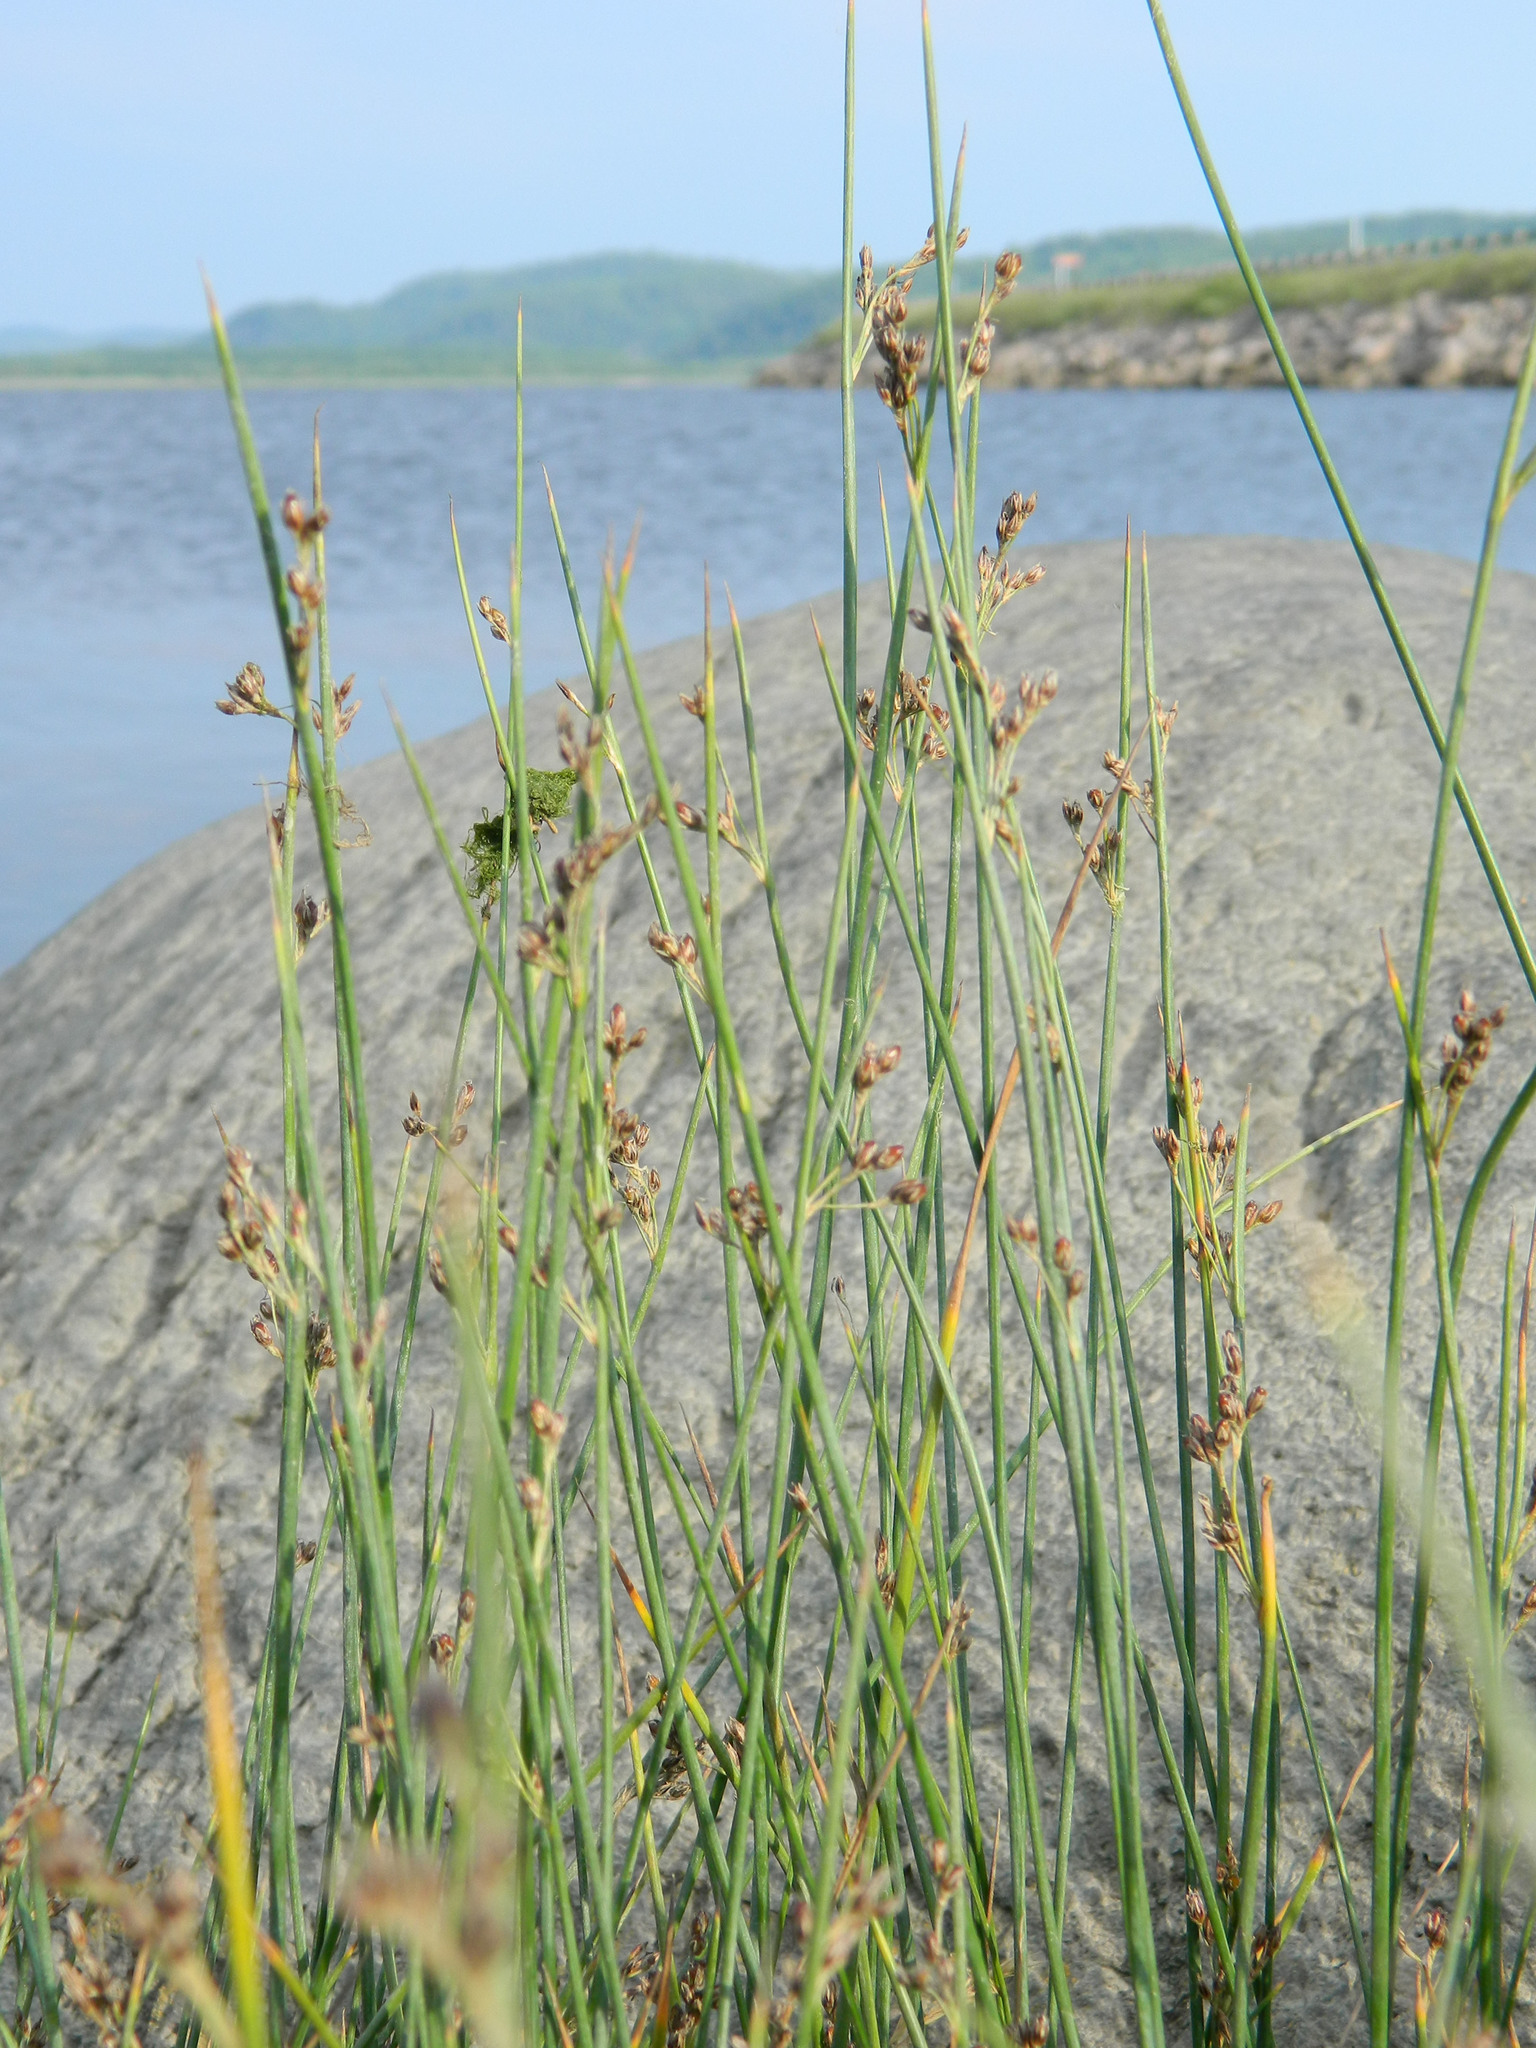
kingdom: Plantae
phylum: Tracheophyta
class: Liliopsida
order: Poales
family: Juncaceae
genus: Juncus
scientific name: Juncus balticus
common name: Baltic rush
